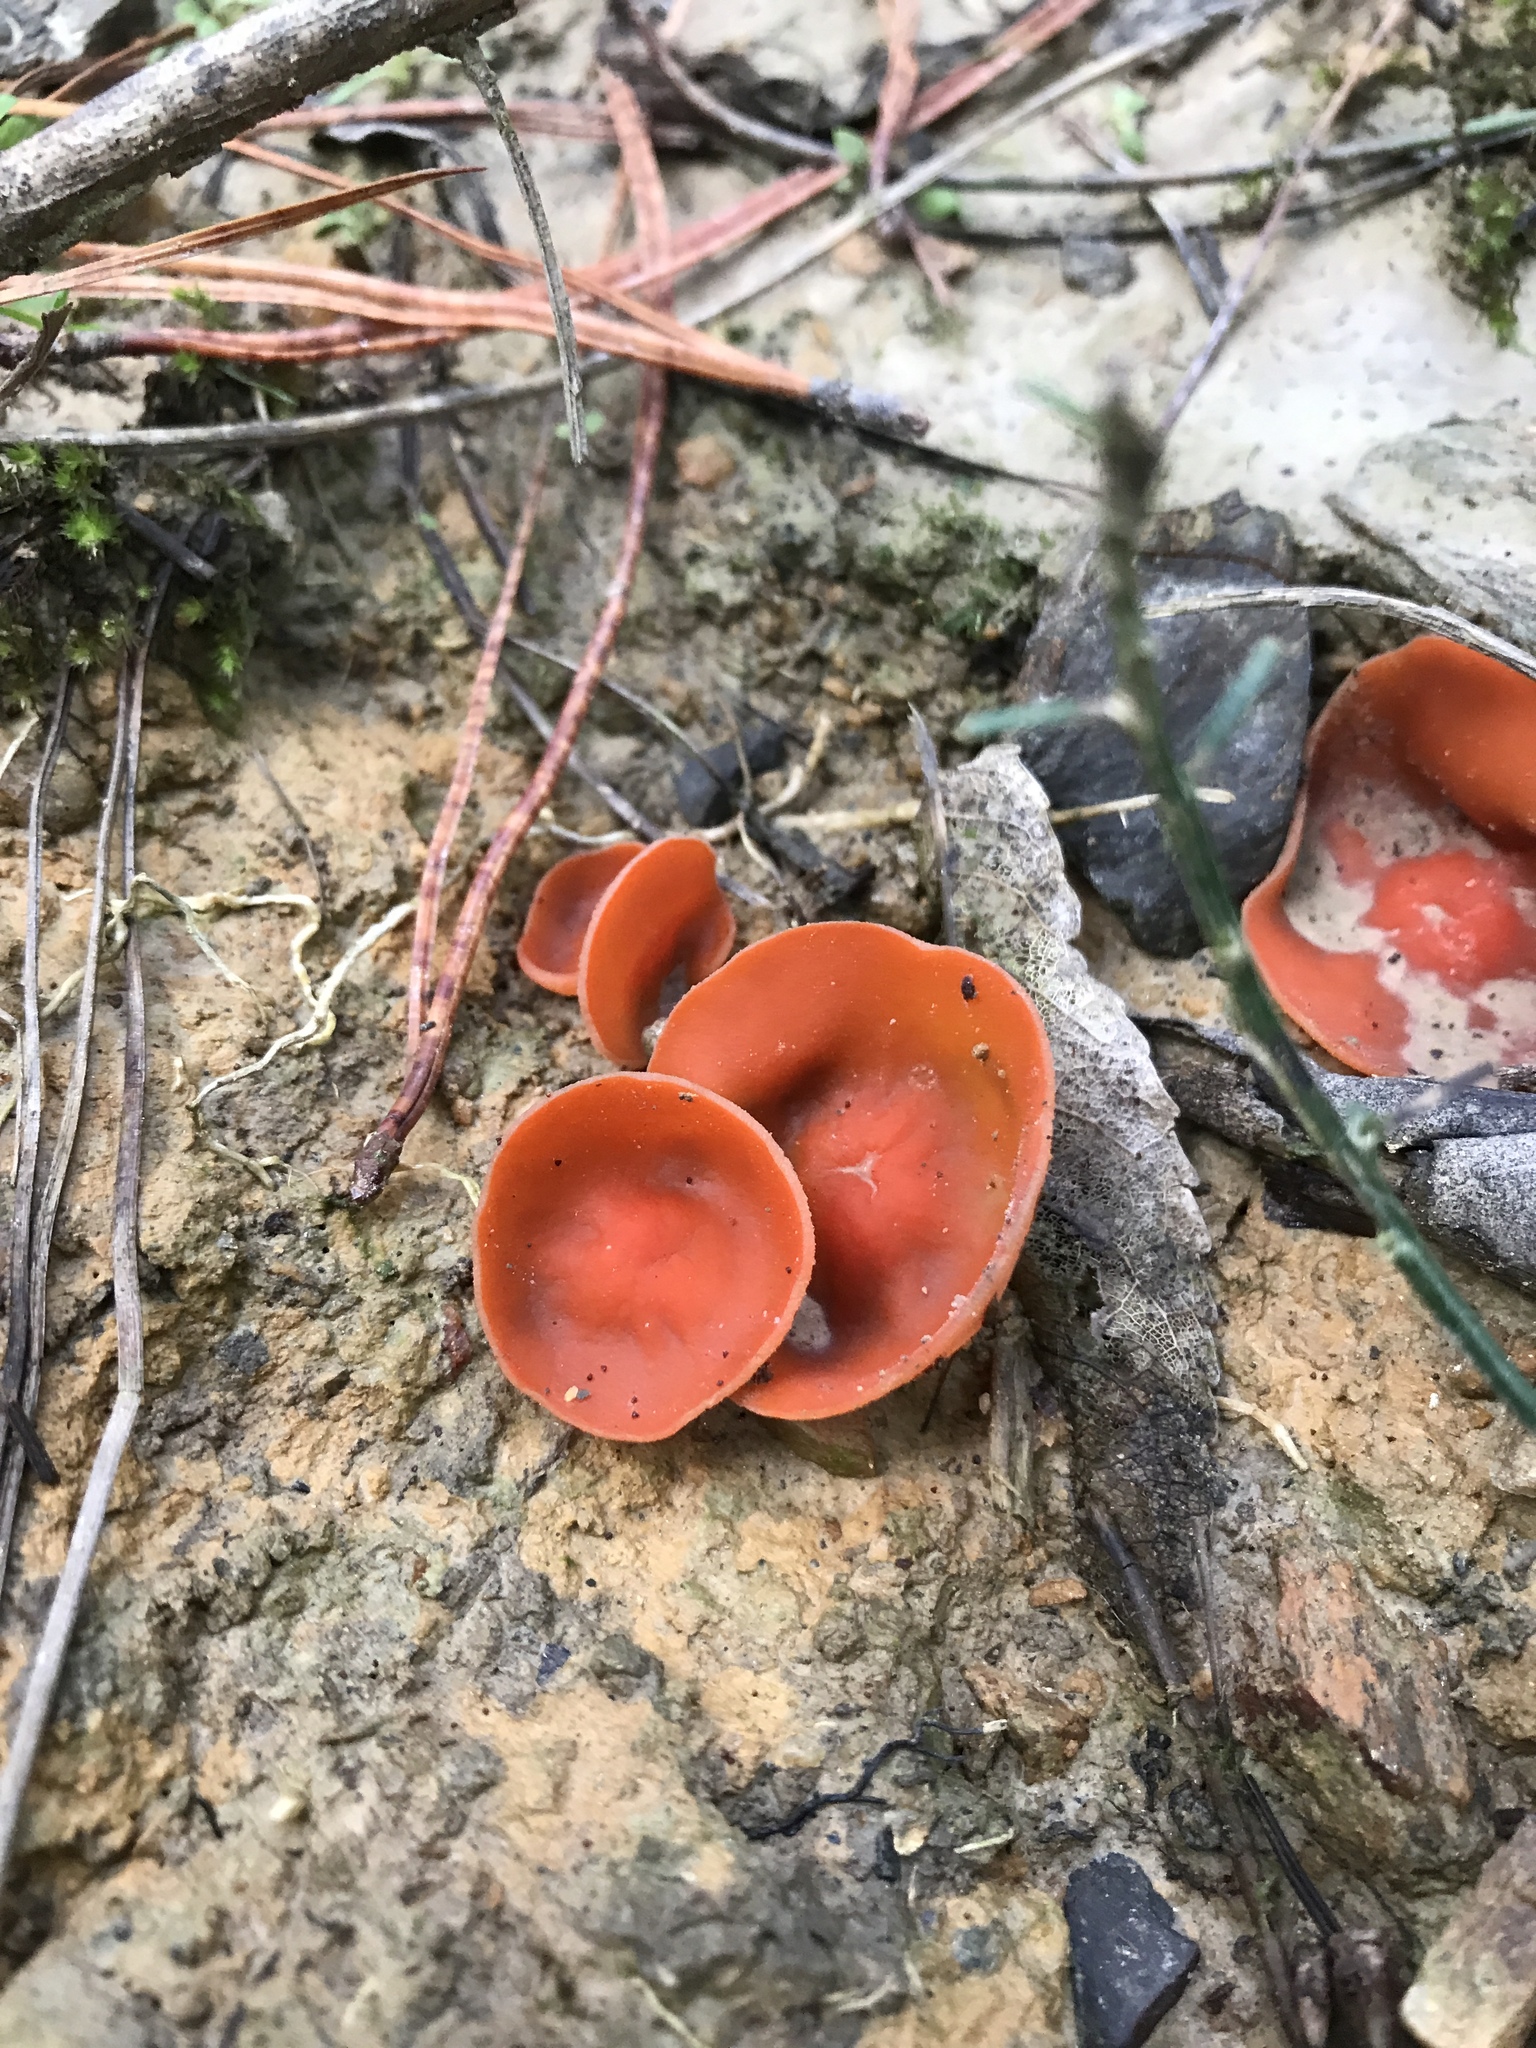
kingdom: Fungi
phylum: Ascomycota
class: Pezizomycetes
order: Pezizales
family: Pyronemataceae
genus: Aleuria
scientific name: Aleuria aurantia
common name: Orange peel fungus
